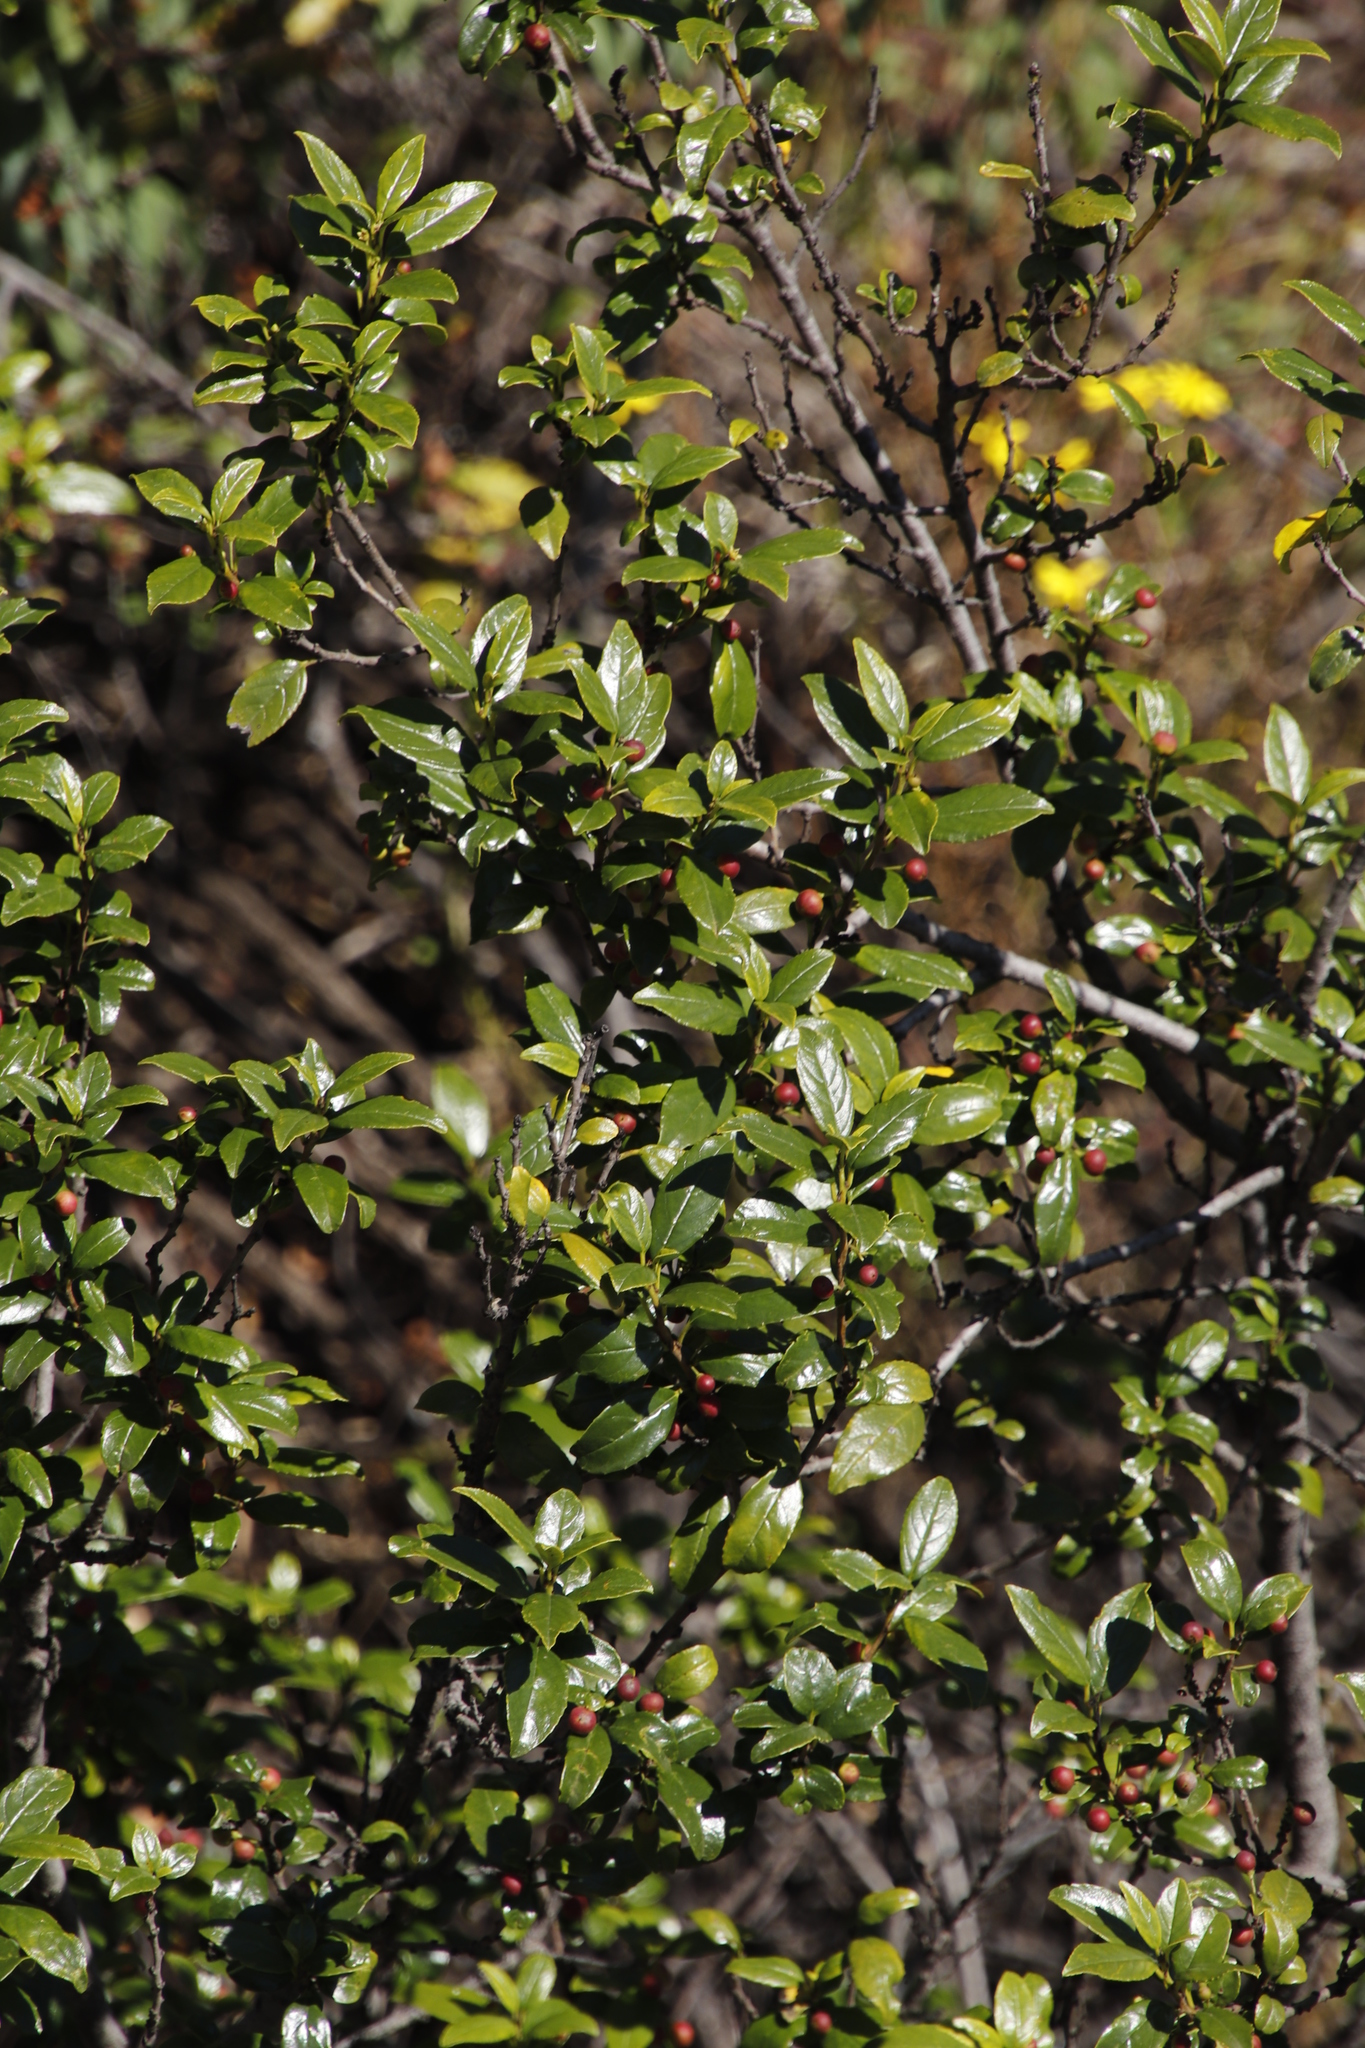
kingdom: Plantae
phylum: Tracheophyta
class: Magnoliopsida
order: Rosales
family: Rhamnaceae
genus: Rhamnus
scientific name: Rhamnus prinoides
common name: Dogwood
